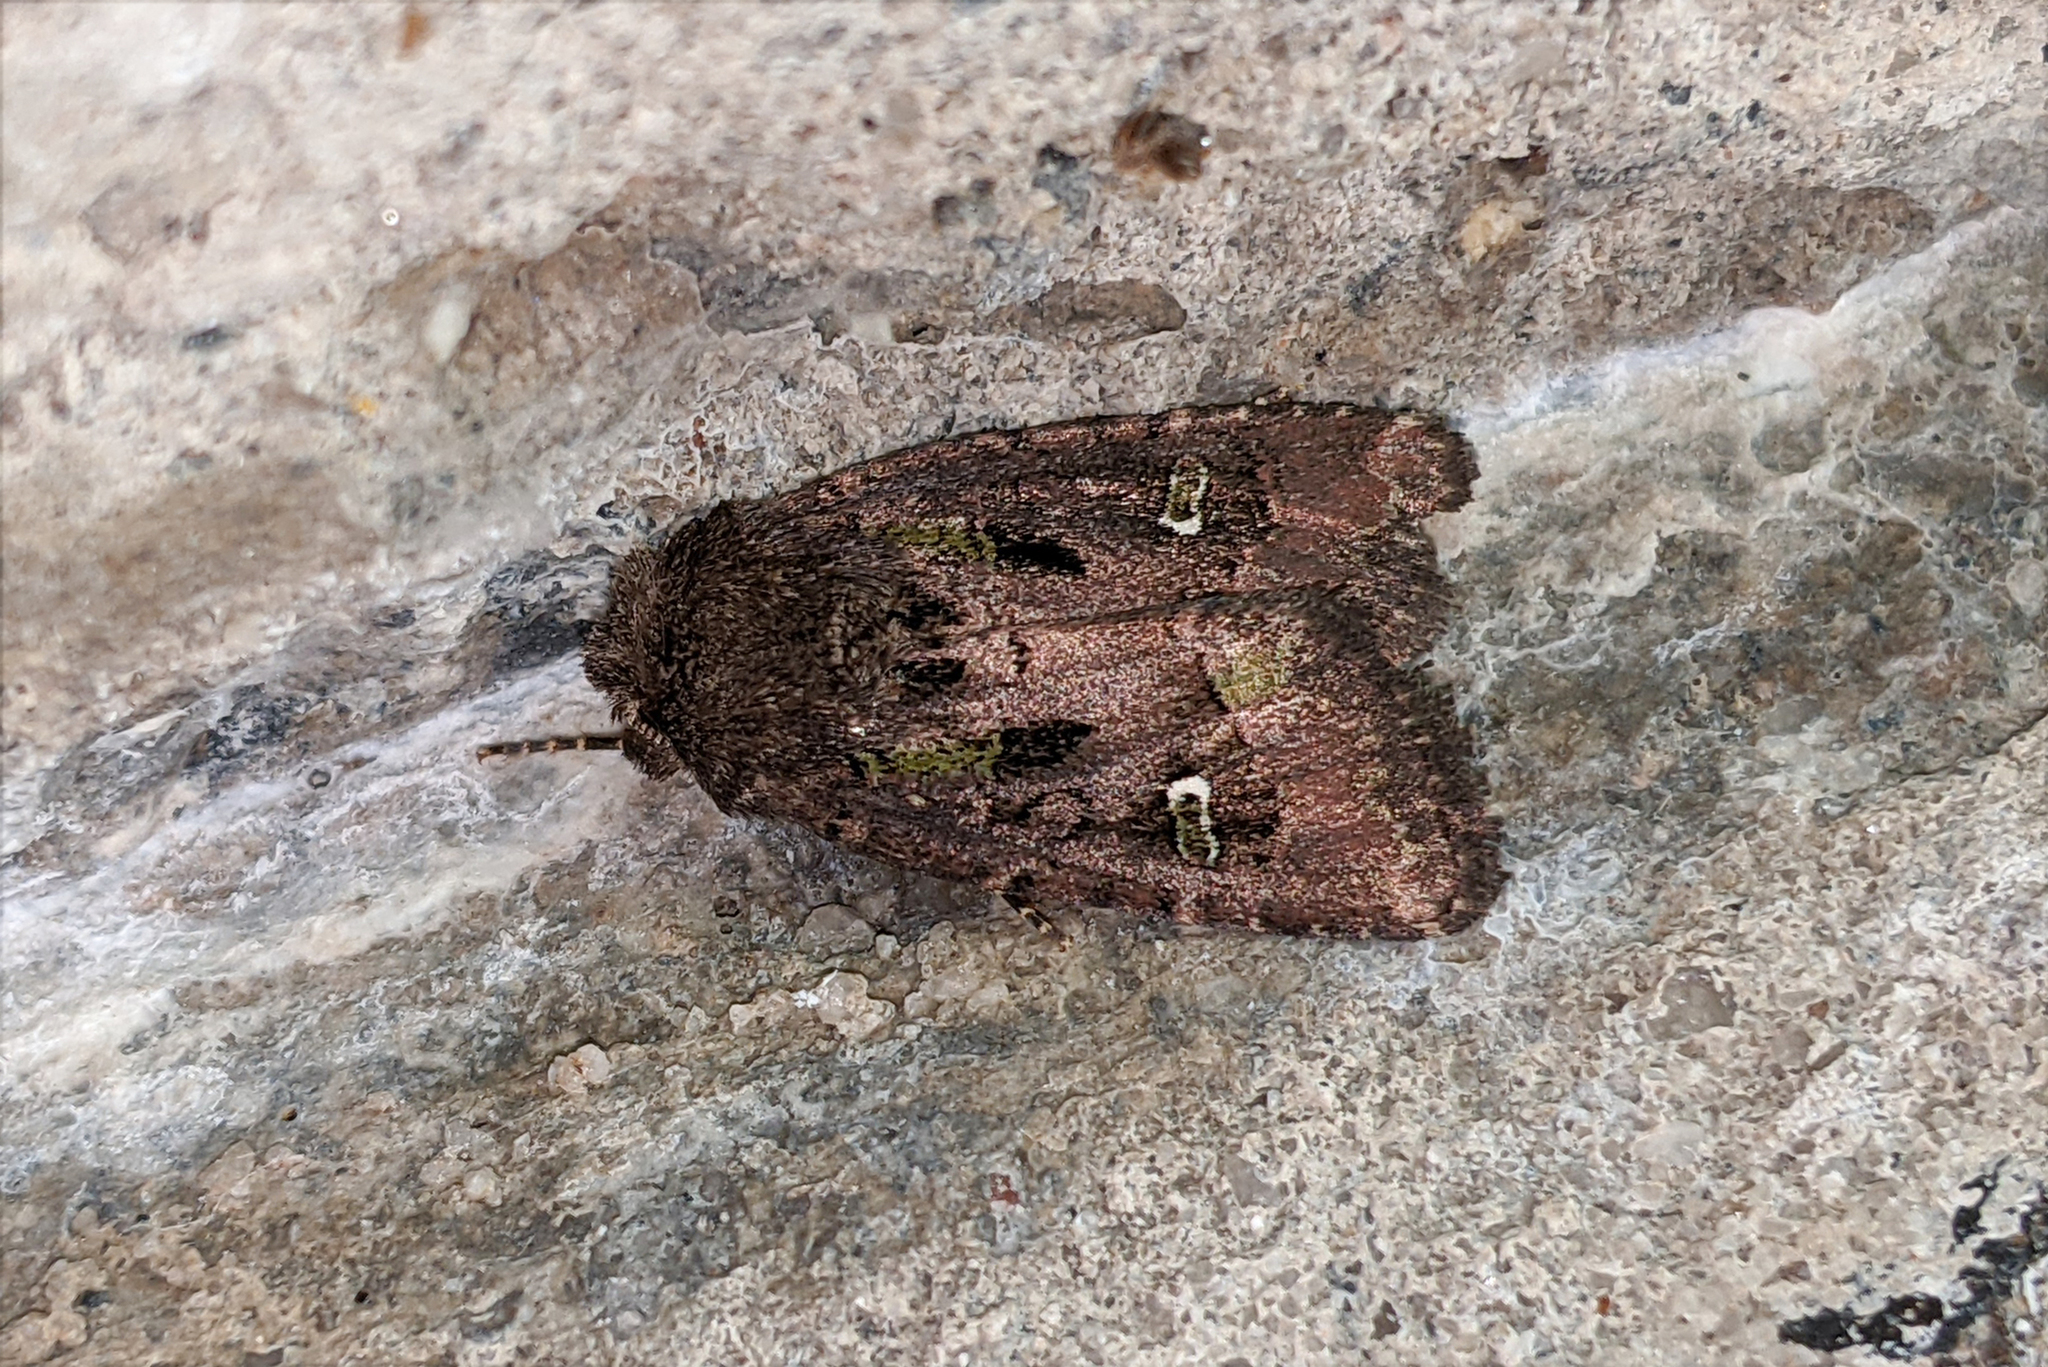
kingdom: Animalia
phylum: Arthropoda
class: Insecta
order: Lepidoptera
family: Noctuidae
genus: Lacinipolia
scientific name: Lacinipolia renigera
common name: Kidney-spotted minor
